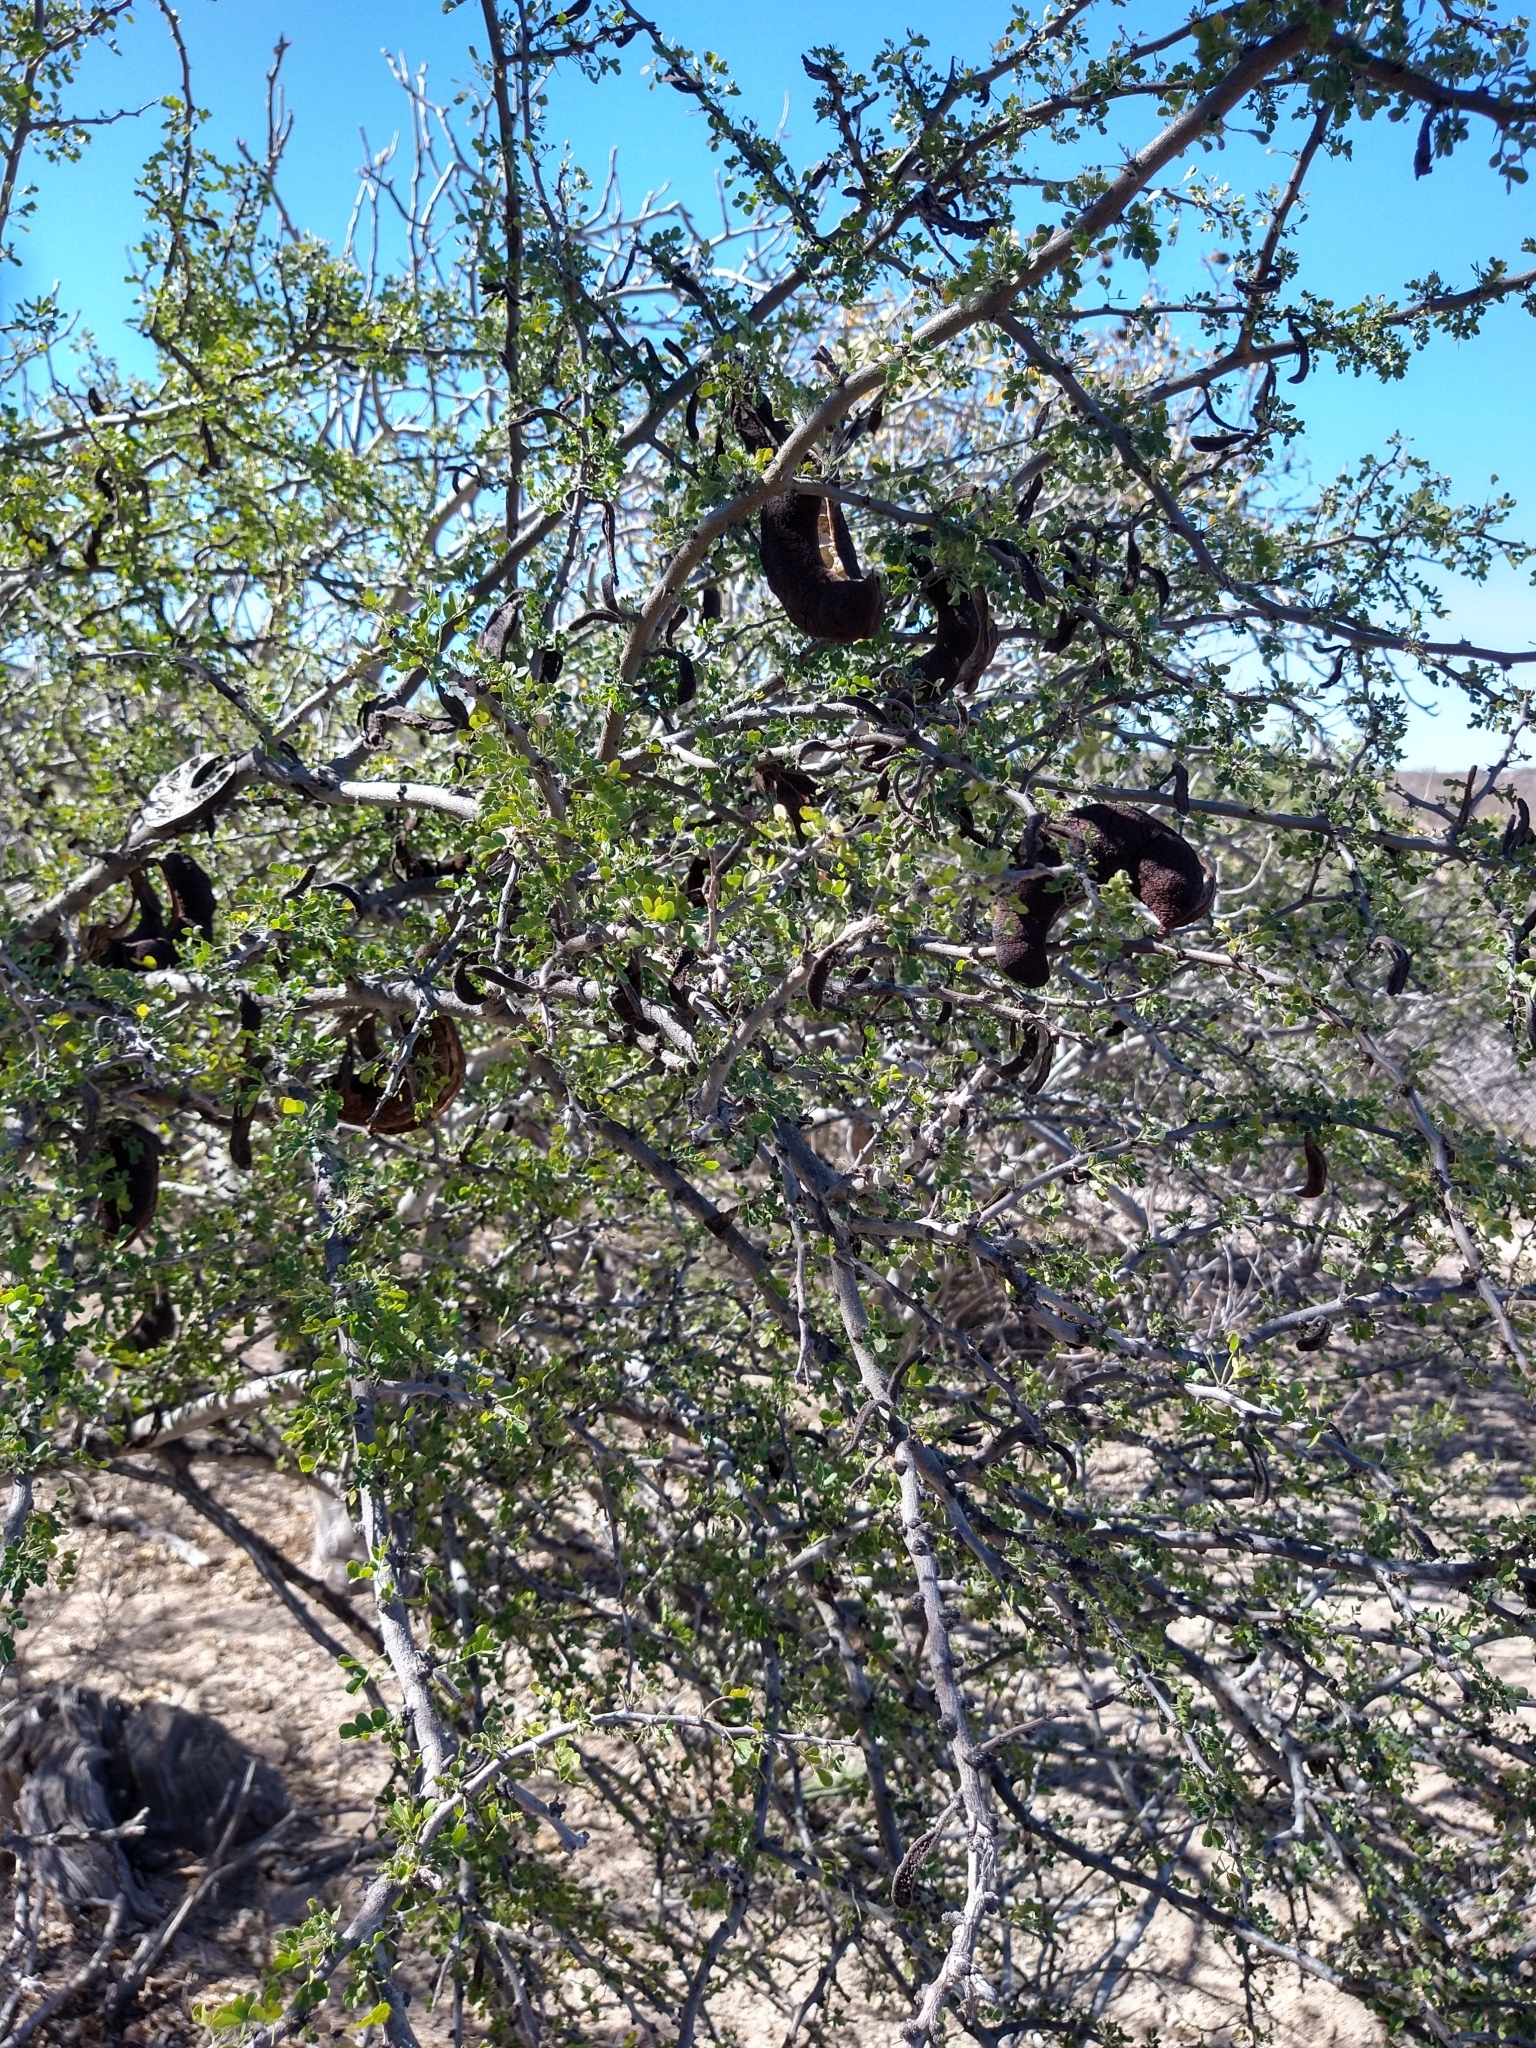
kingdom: Plantae
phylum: Tracheophyta
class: Magnoliopsida
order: Fabales
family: Fabaceae
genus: Ebenopsis
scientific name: Ebenopsis confinis
